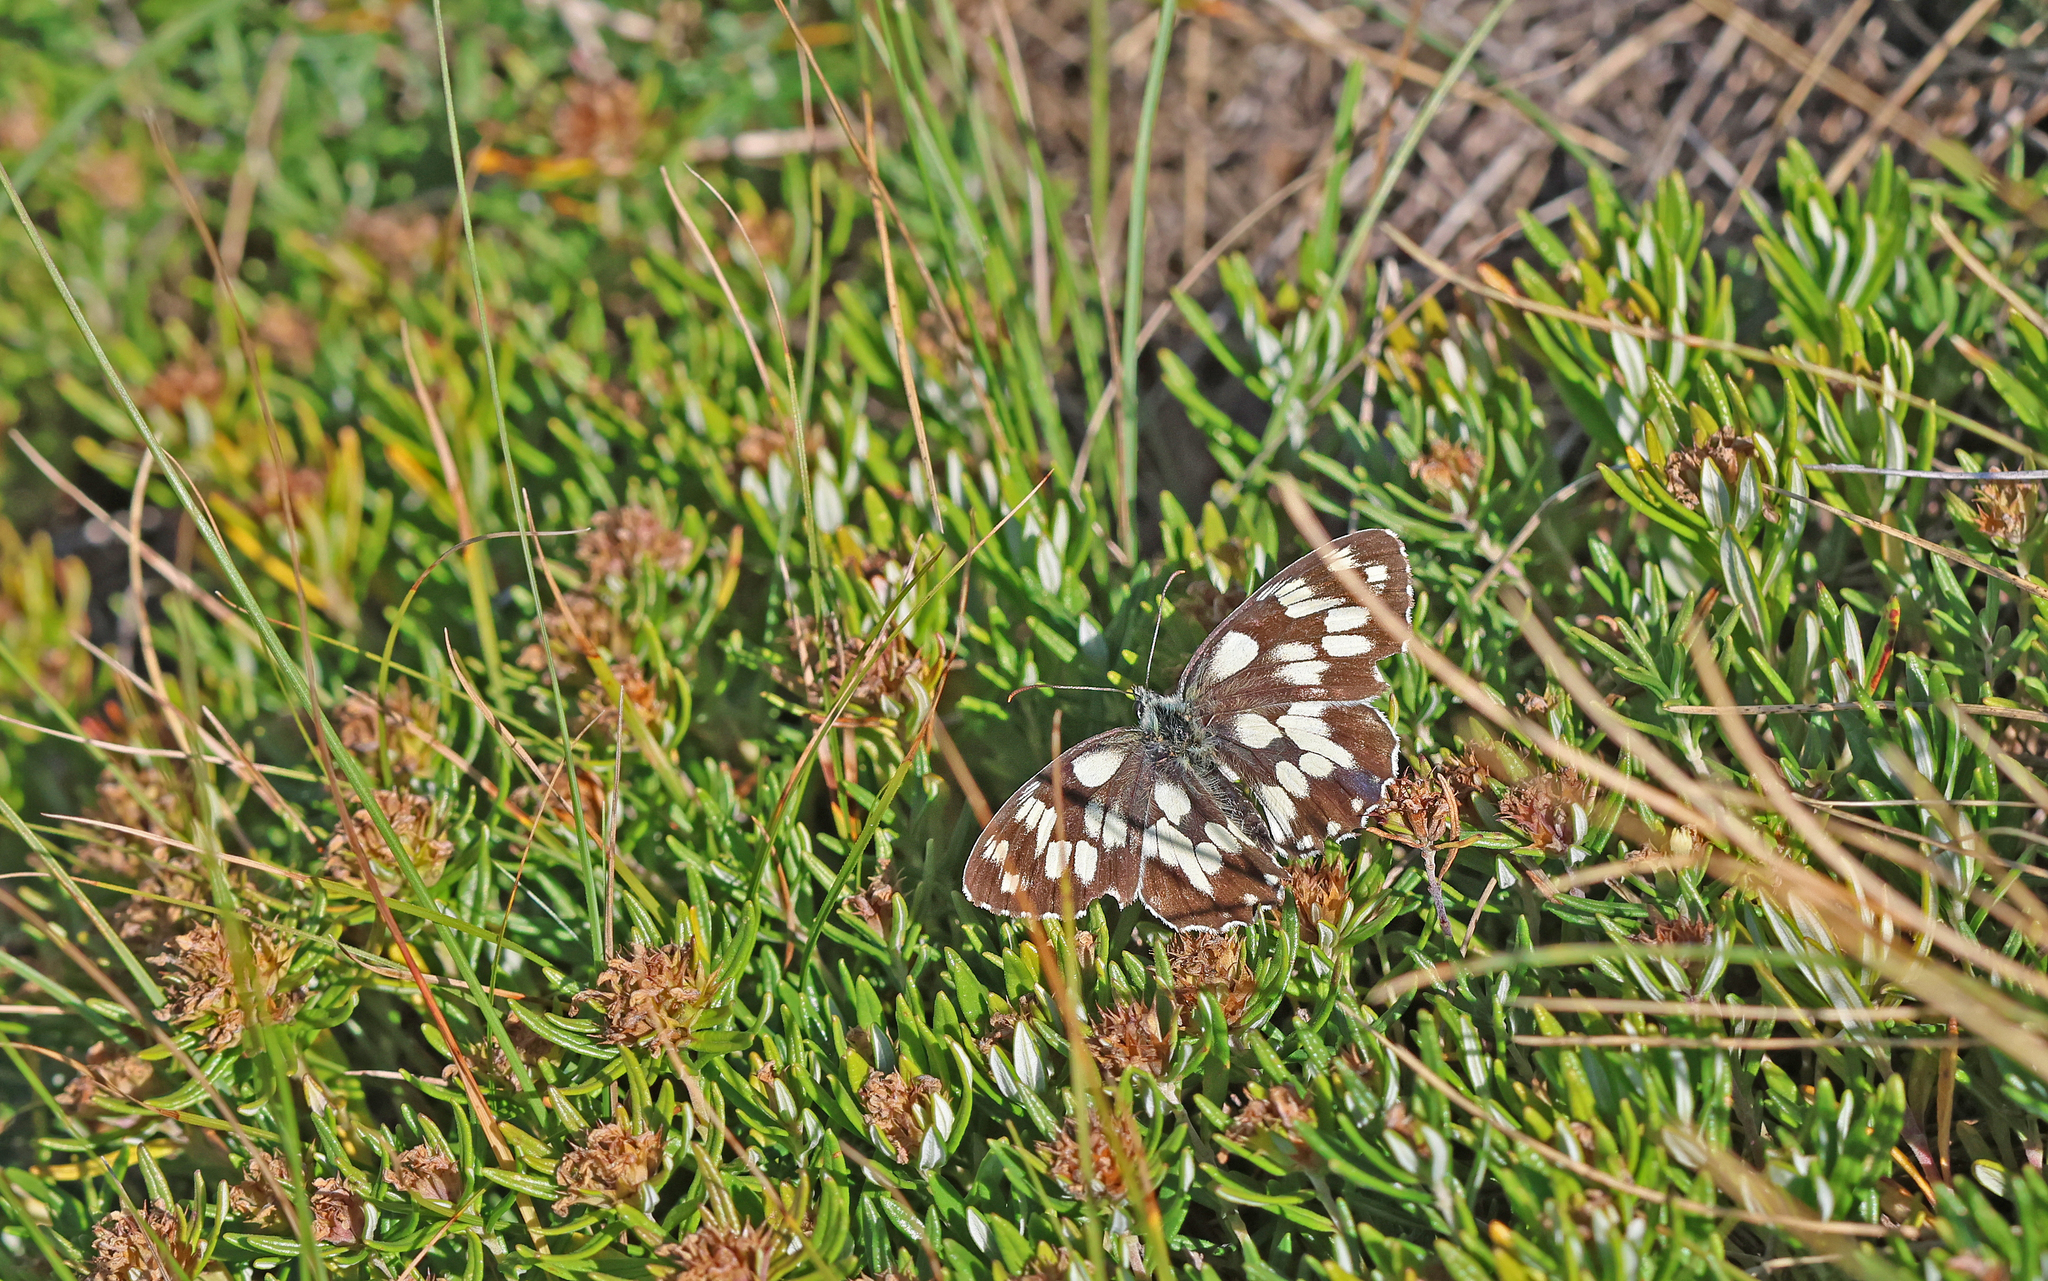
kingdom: Animalia
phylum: Arthropoda
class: Insecta
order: Lepidoptera
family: Nymphalidae
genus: Melanargia
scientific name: Melanargia galathea
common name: Marbled white
